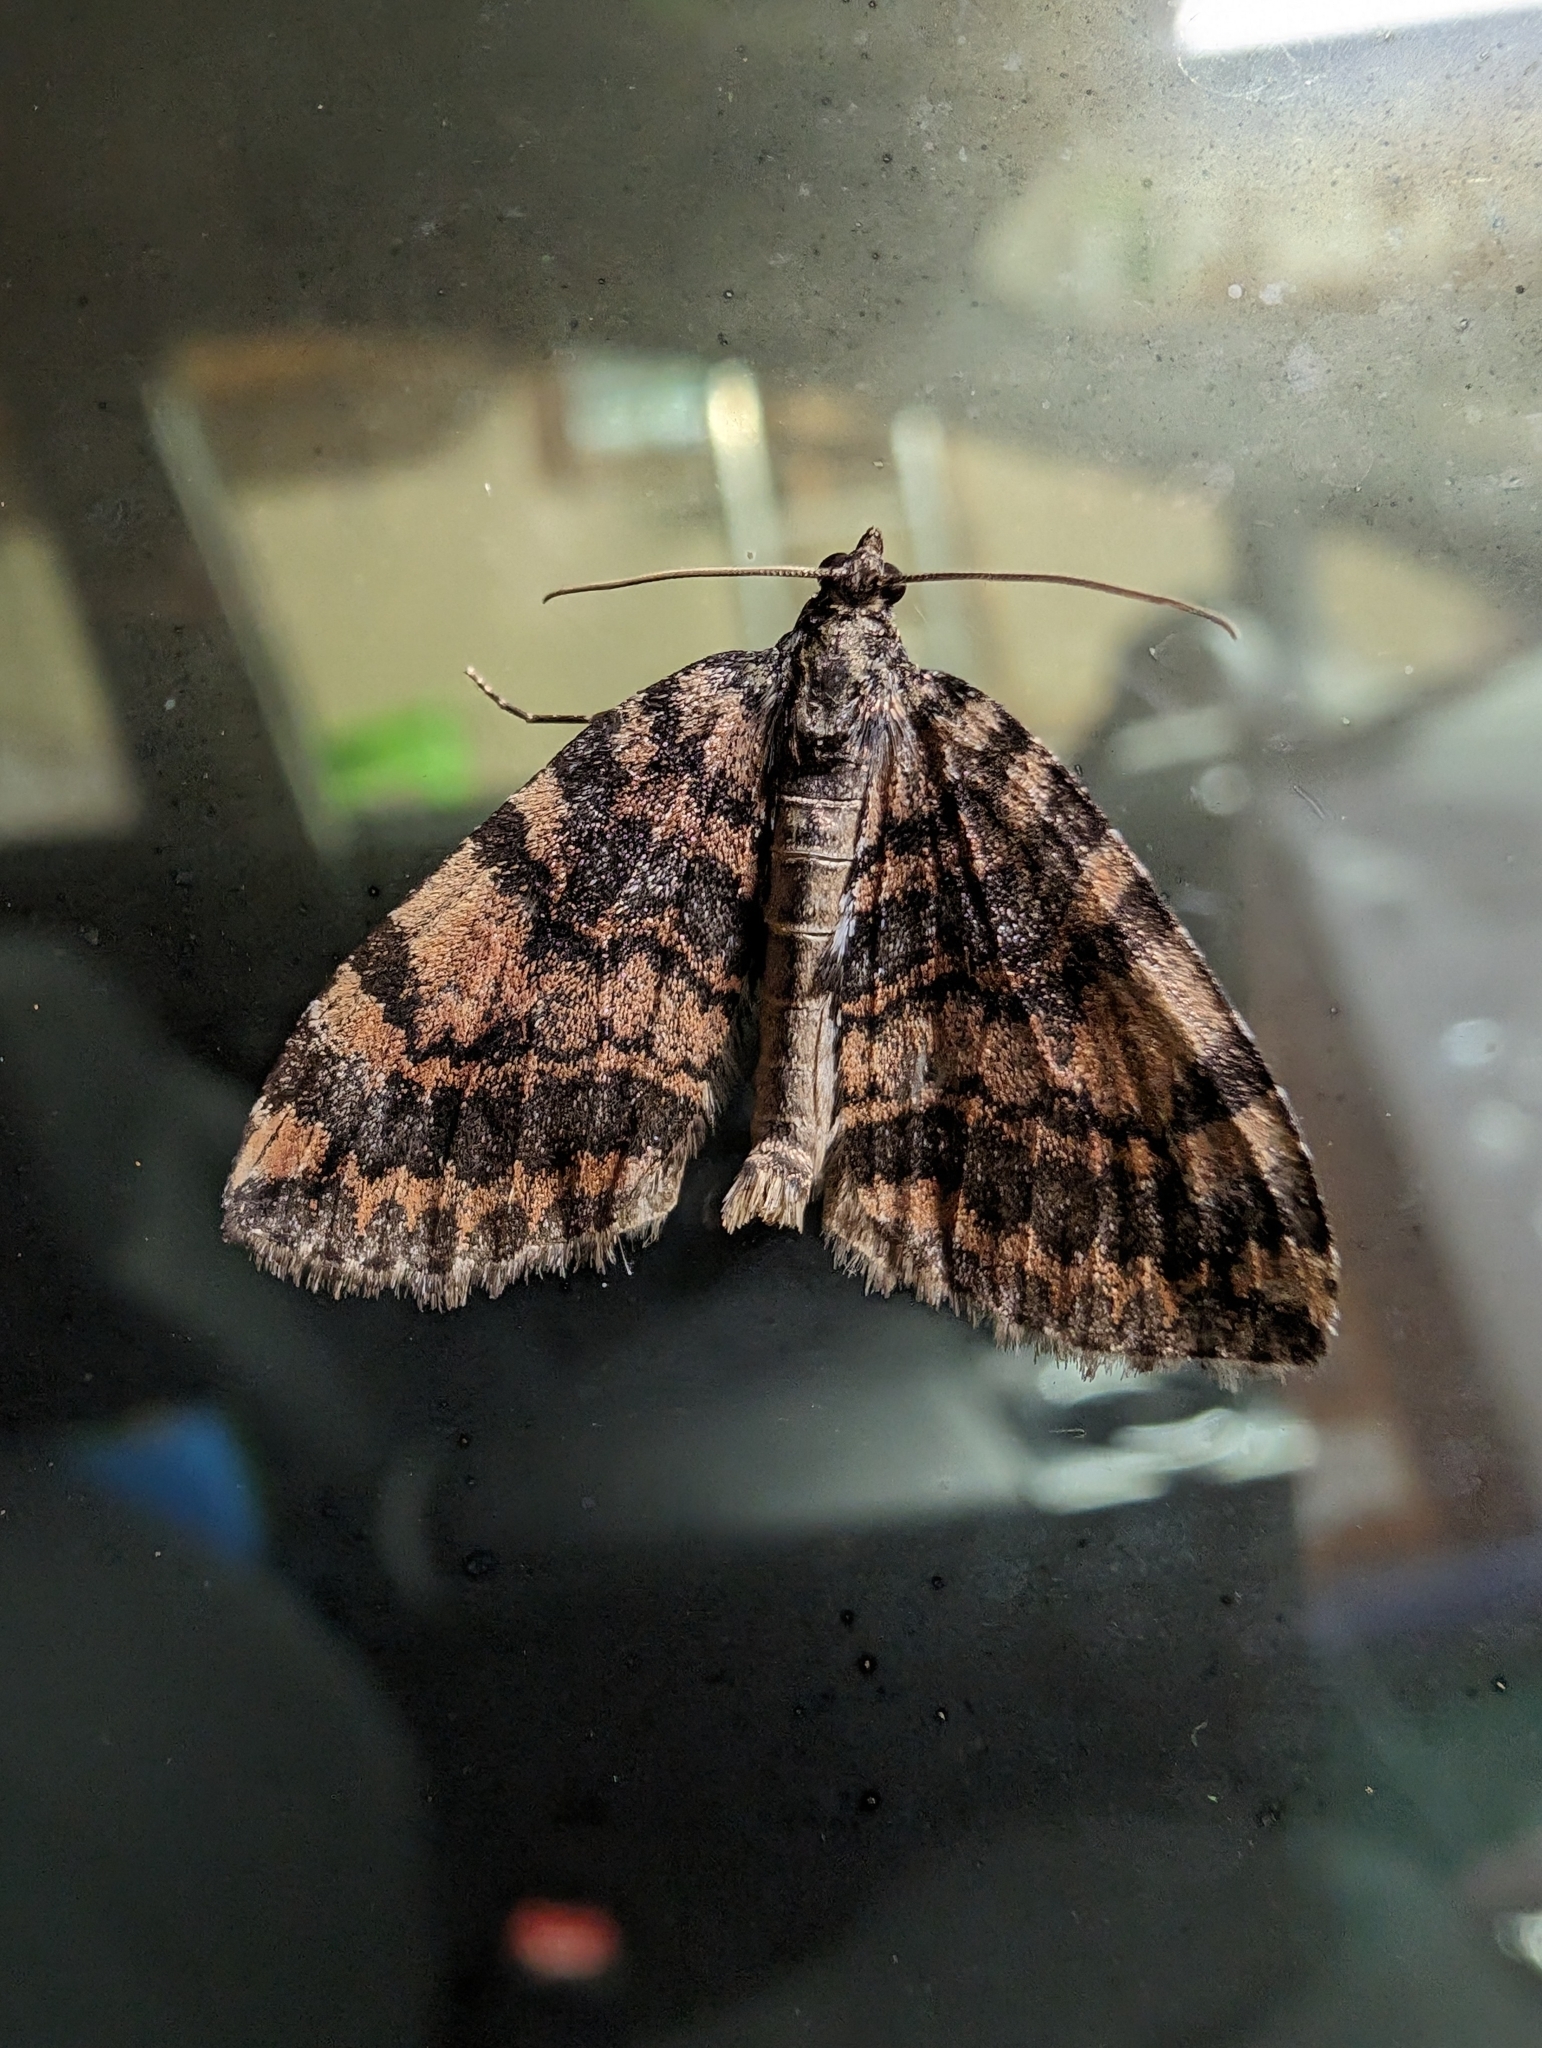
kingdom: Animalia
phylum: Arthropoda
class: Insecta
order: Lepidoptera
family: Geometridae
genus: Hydriomena
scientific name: Hydriomena nubilofasciata
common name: Oak winter highflier moth
